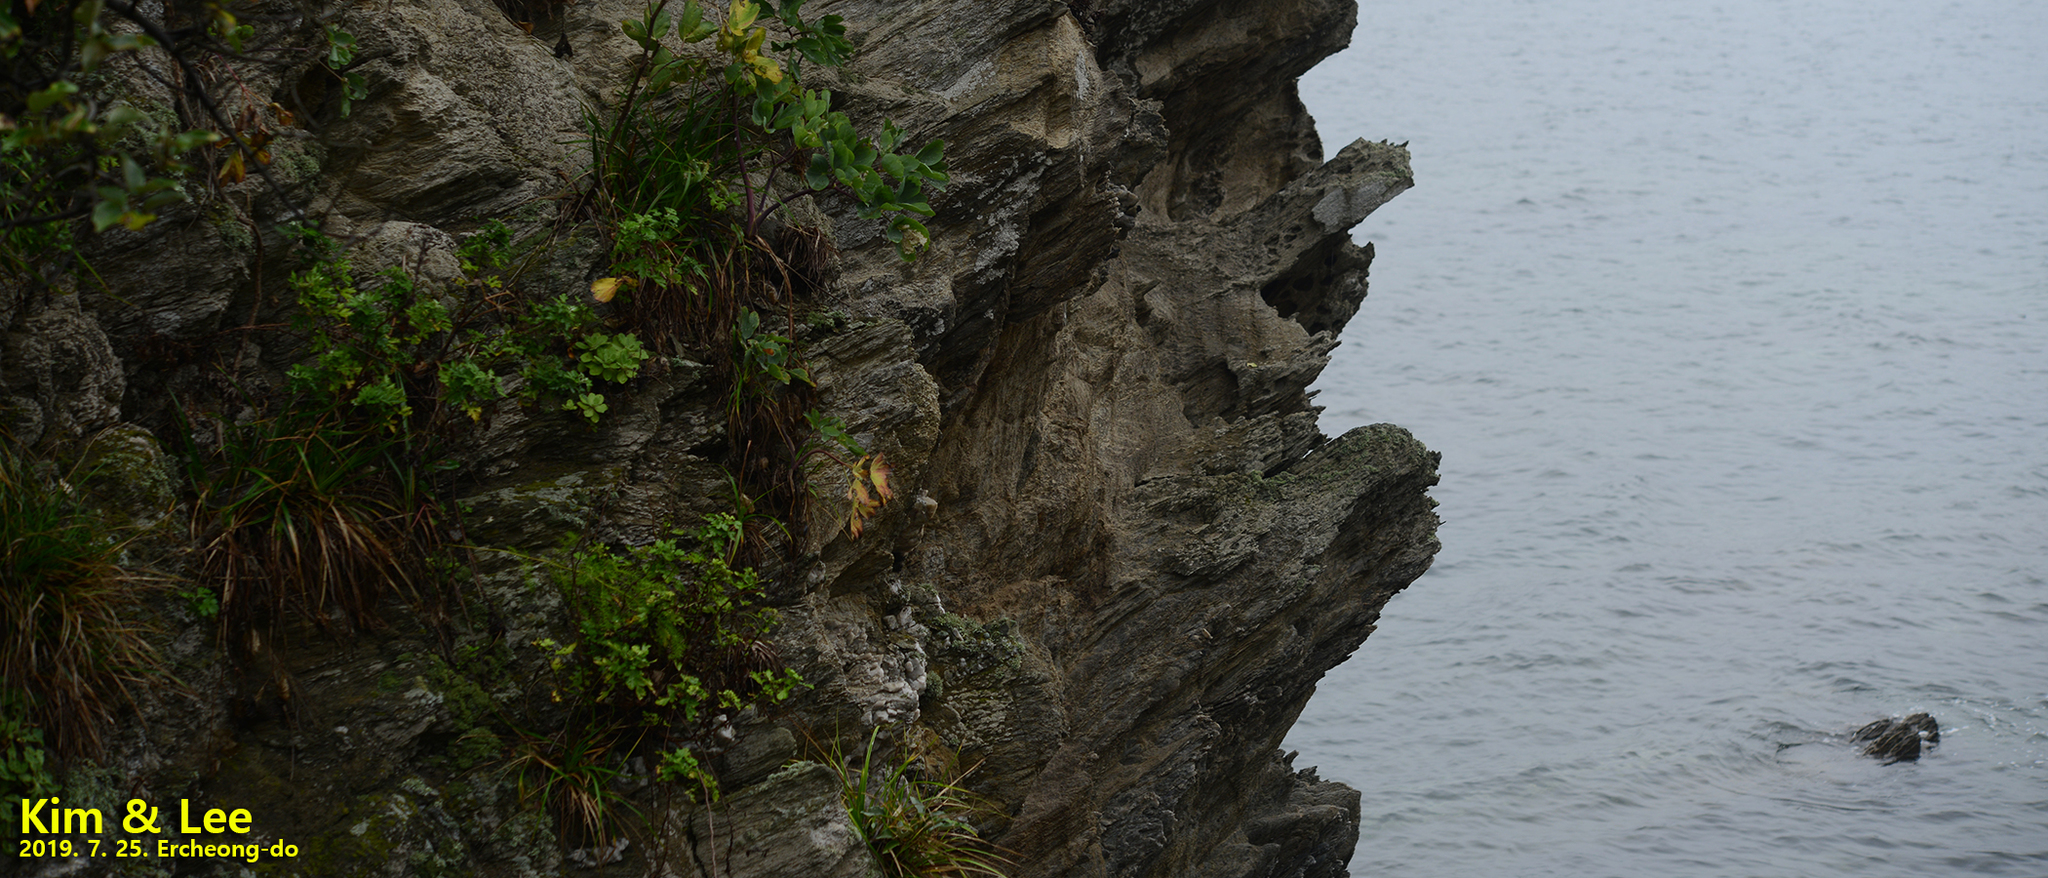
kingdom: Plantae
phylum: Tracheophyta
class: Magnoliopsida
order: Apiales
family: Apiaceae
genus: Peucedanum
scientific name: Peucedanum japonicum
